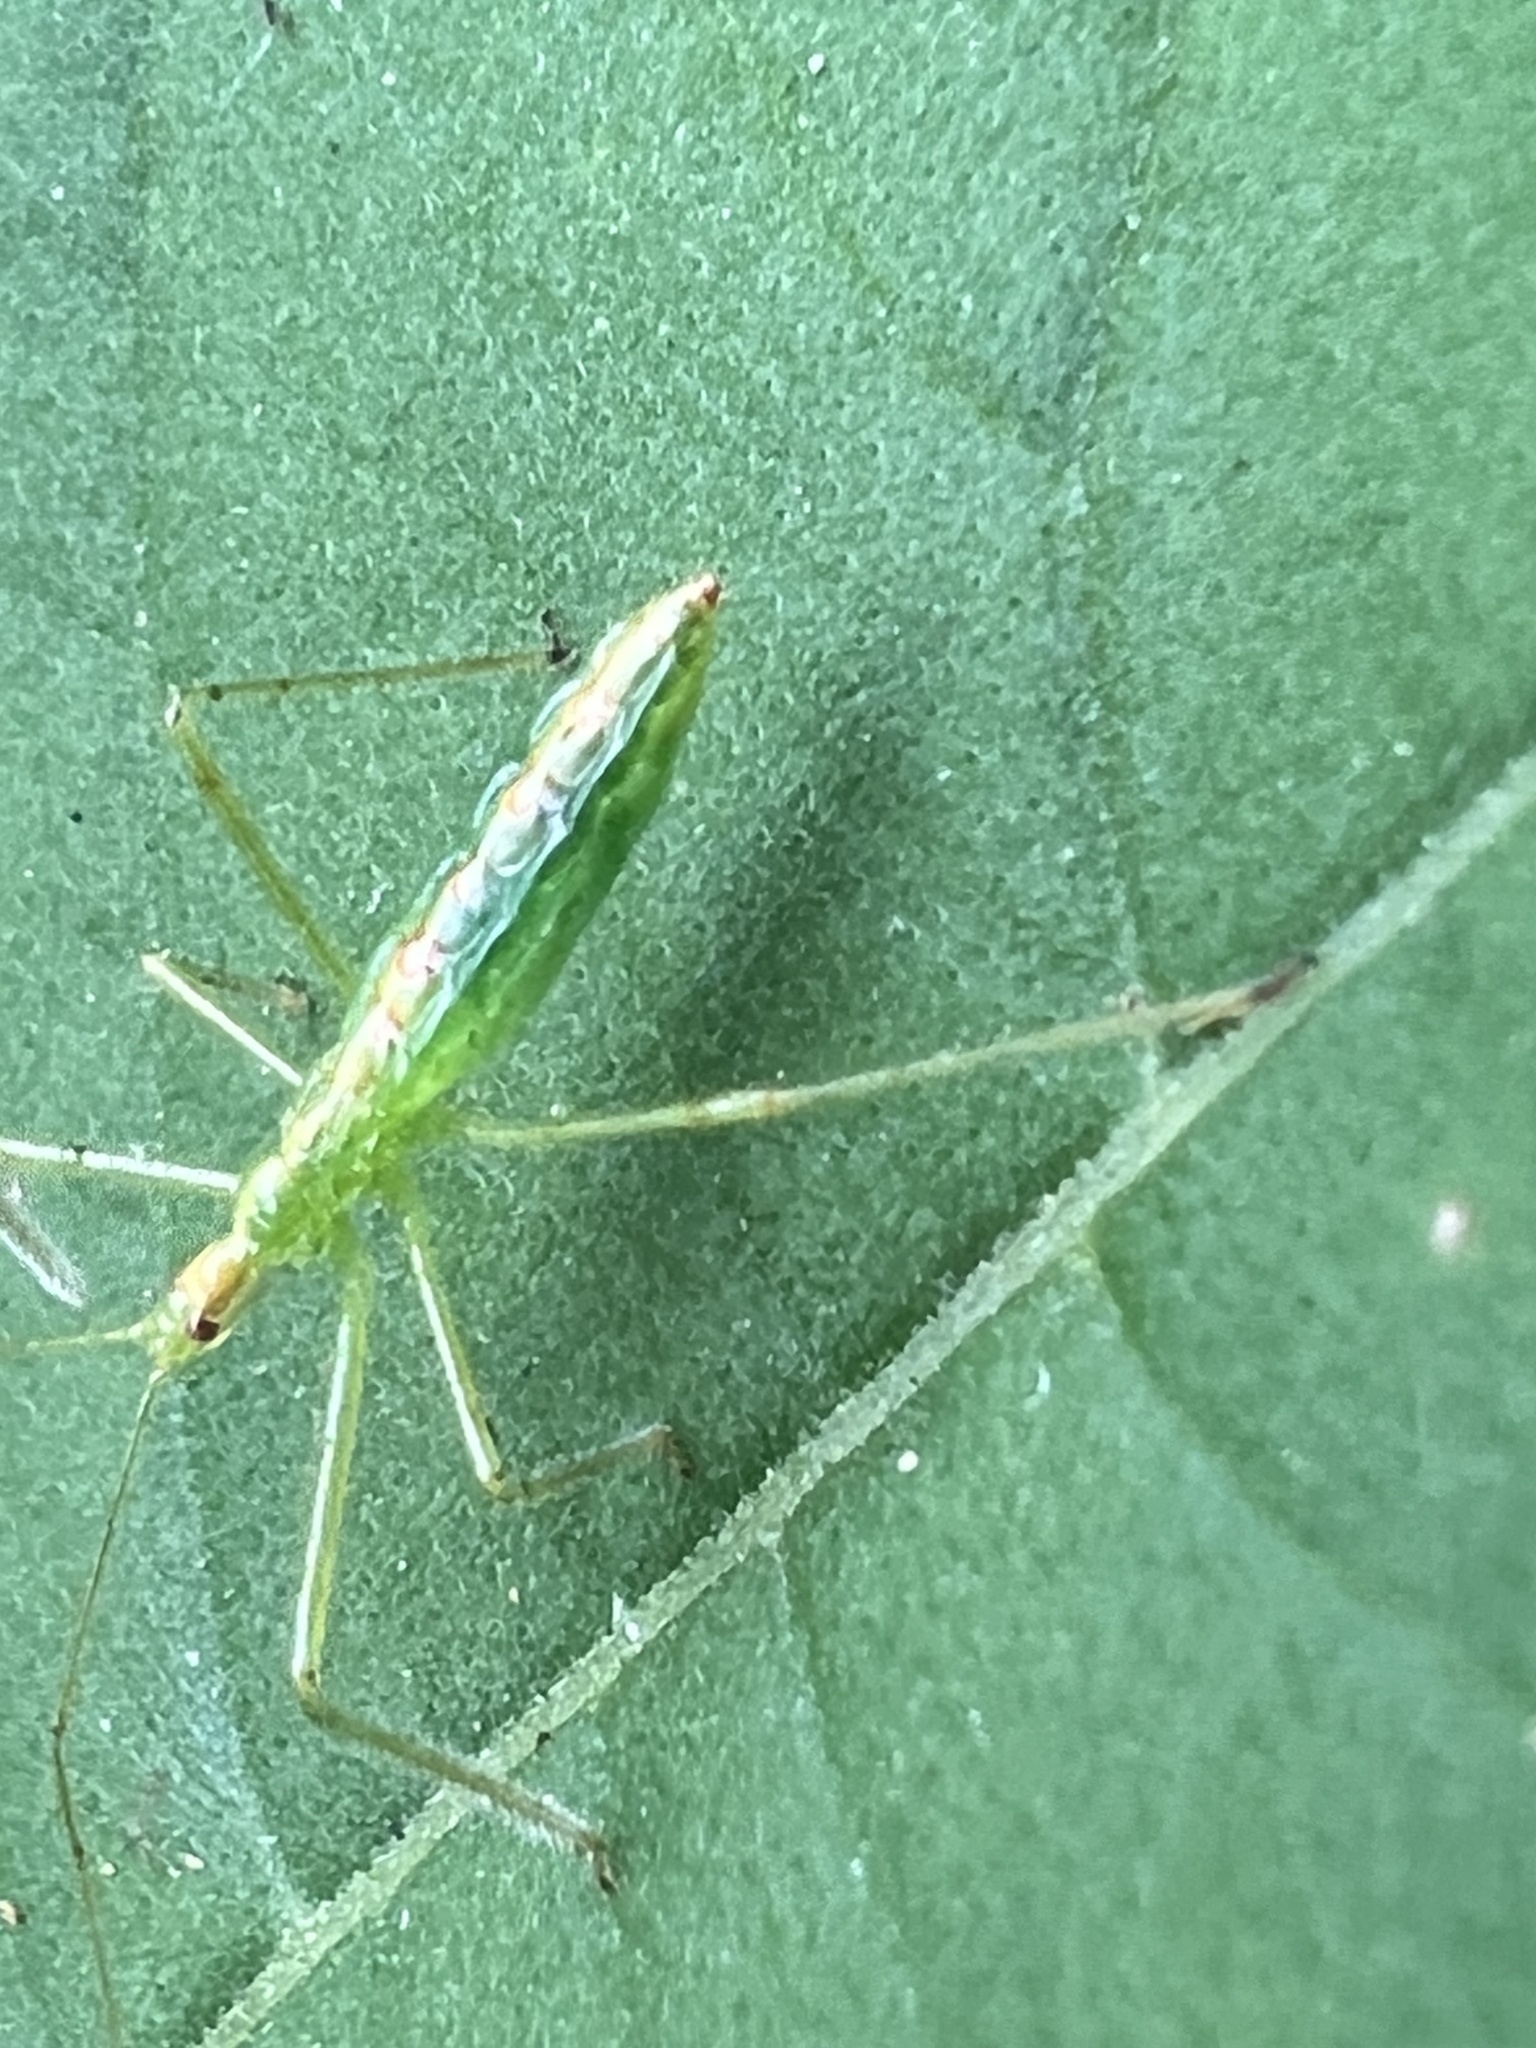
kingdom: Animalia
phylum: Arthropoda
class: Insecta
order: Hemiptera
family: Reduviidae
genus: Zelus
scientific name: Zelus luridus
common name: Pale green assassin bug
